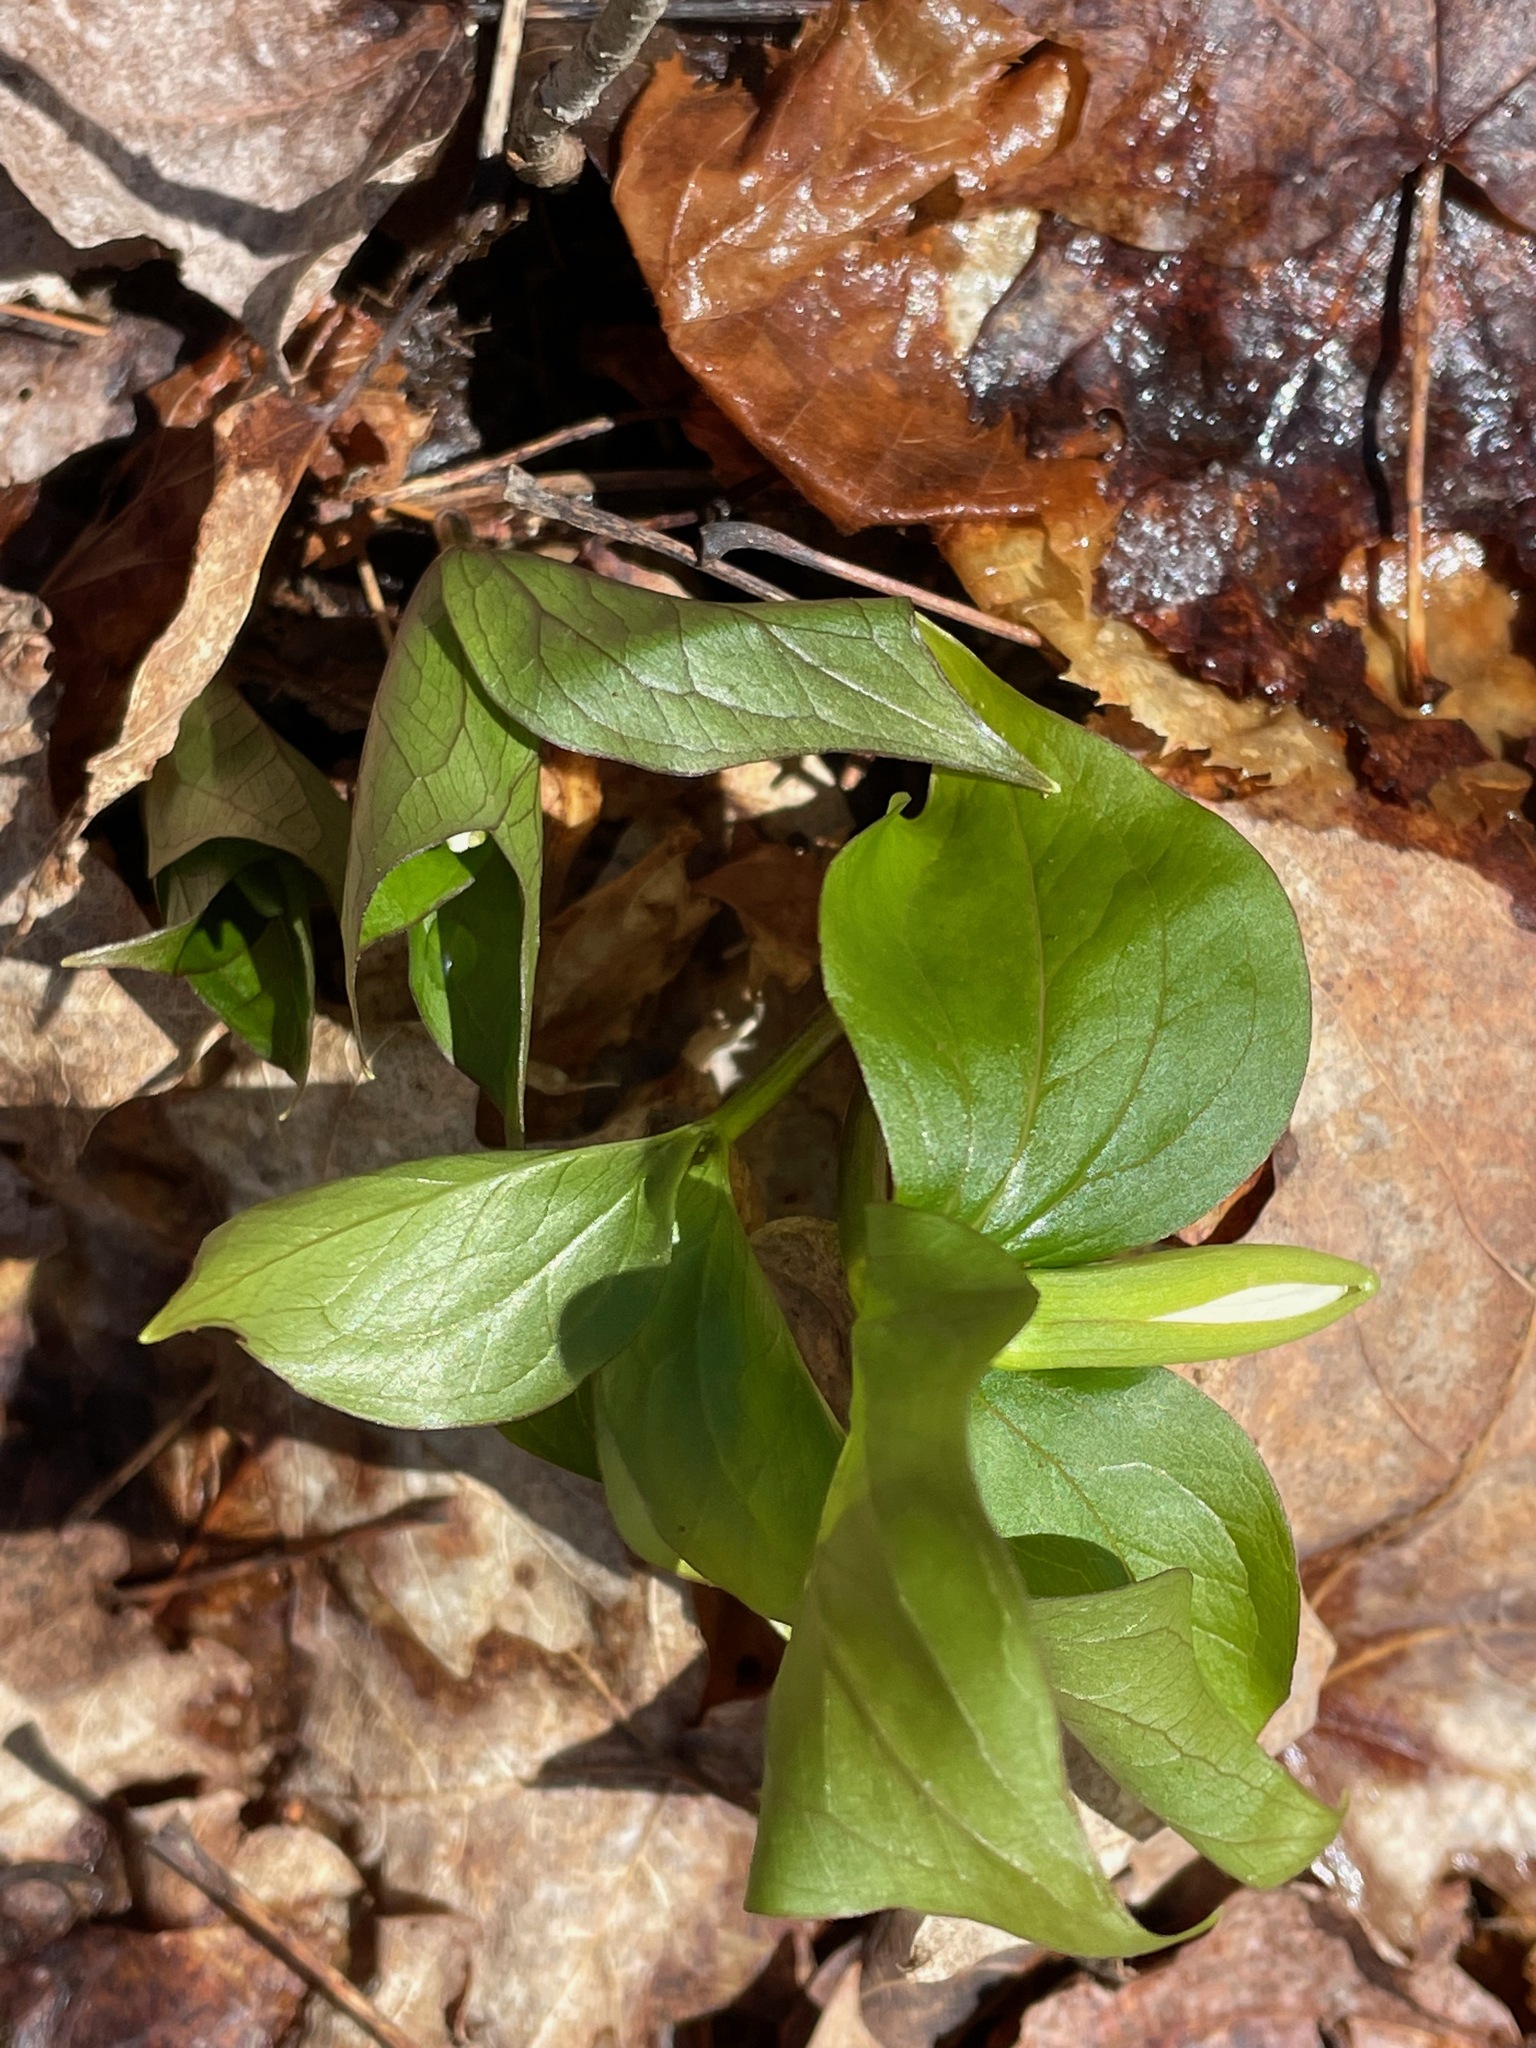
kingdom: Plantae
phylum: Tracheophyta
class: Liliopsida
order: Liliales
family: Melanthiaceae
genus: Trillium
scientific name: Trillium grandiflorum
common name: Great white trillium
